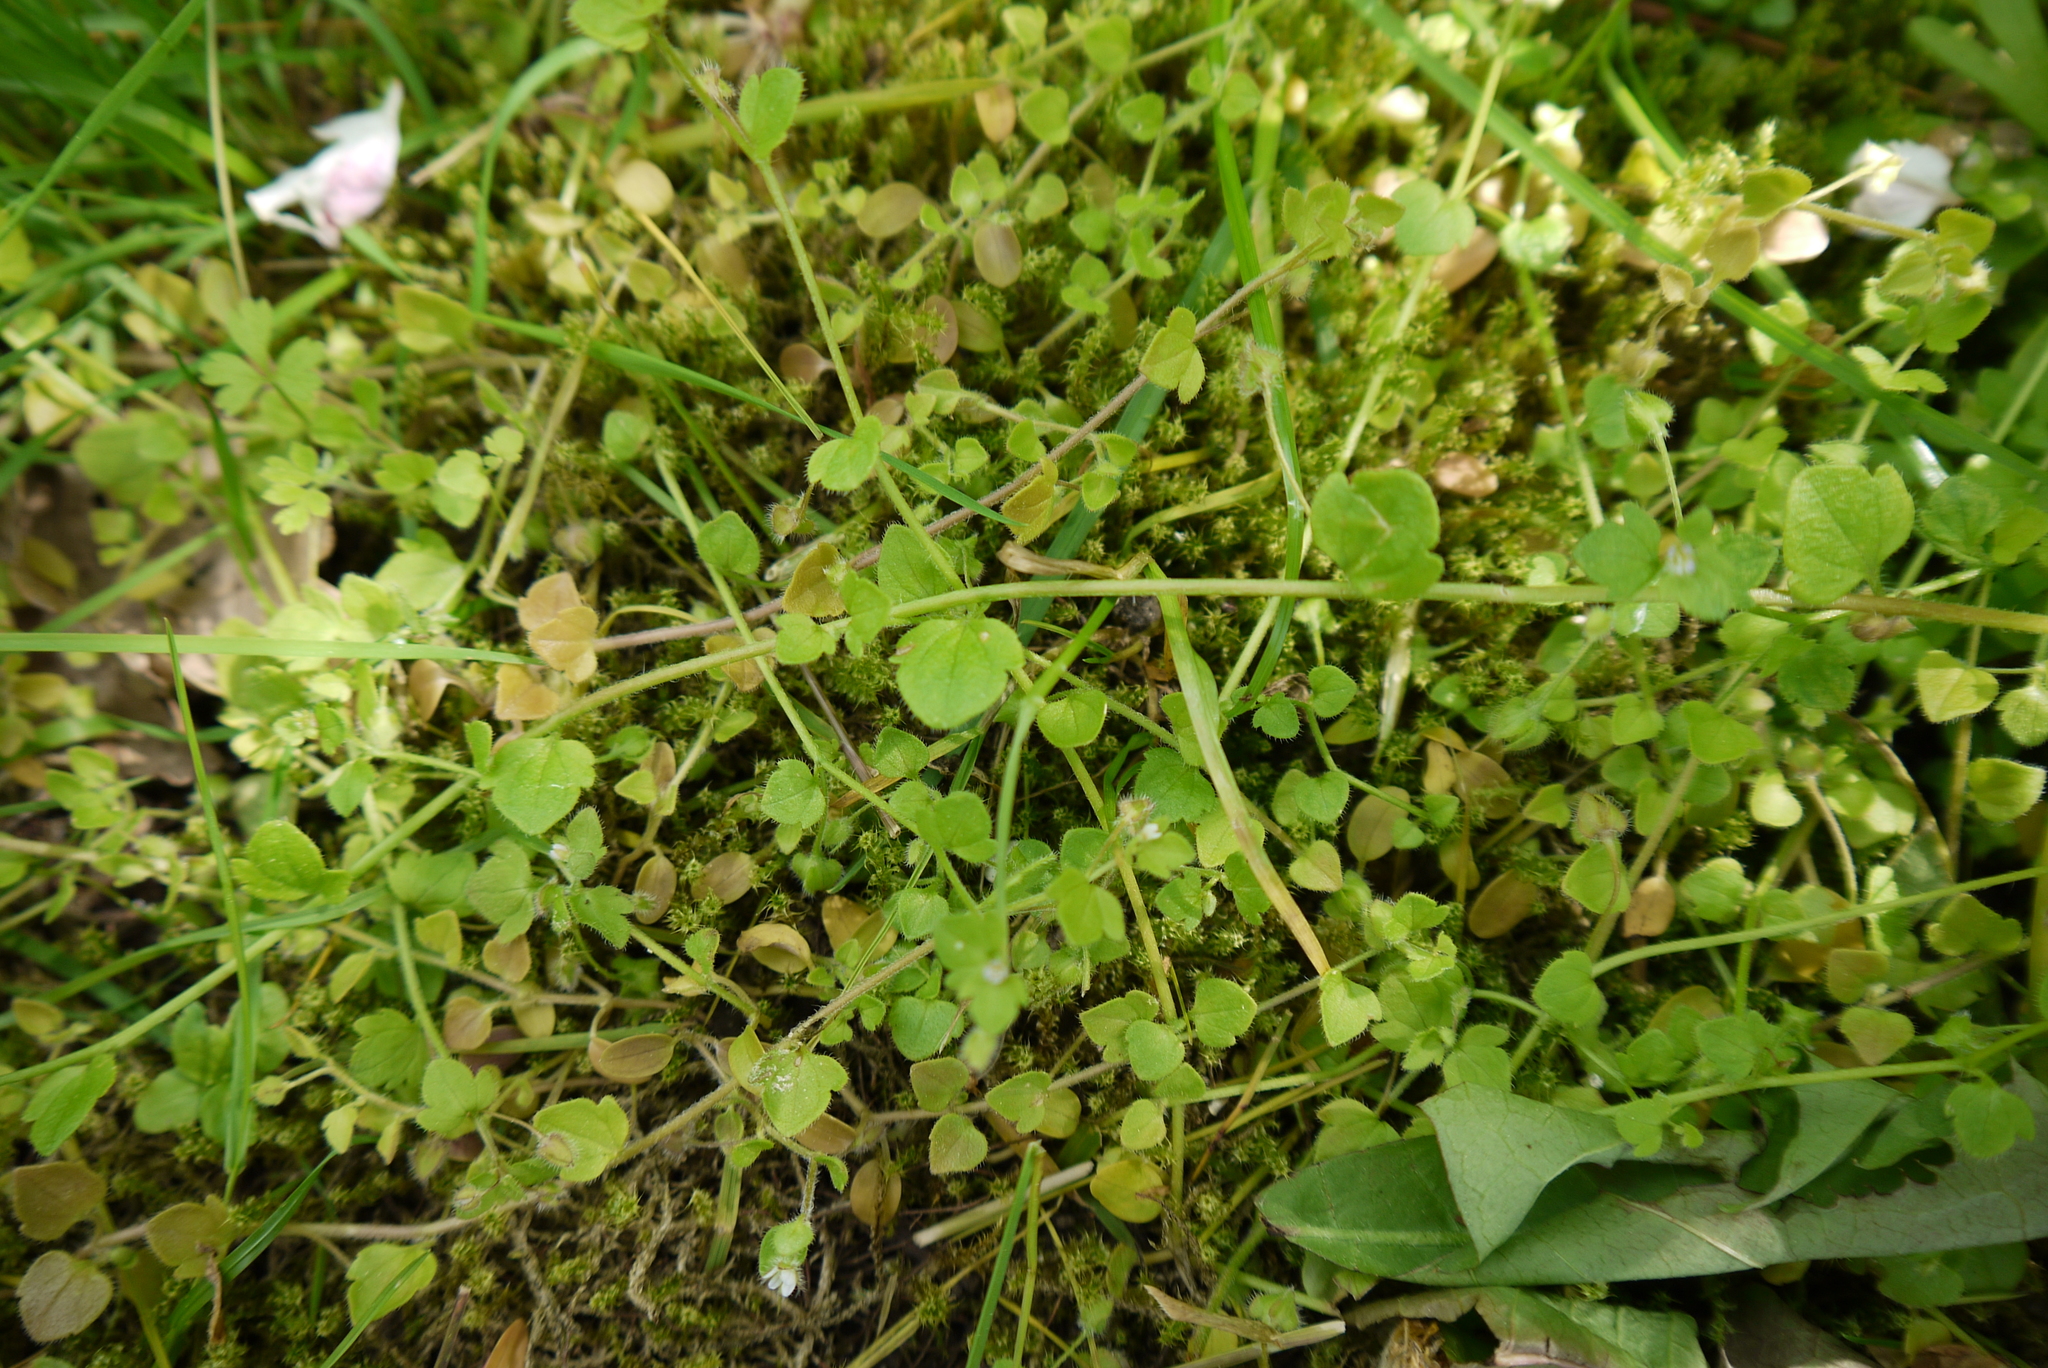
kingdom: Plantae
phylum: Tracheophyta
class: Magnoliopsida
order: Lamiales
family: Plantaginaceae
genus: Veronica
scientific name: Veronica sublobata
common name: False ivy-leaved speedwell
